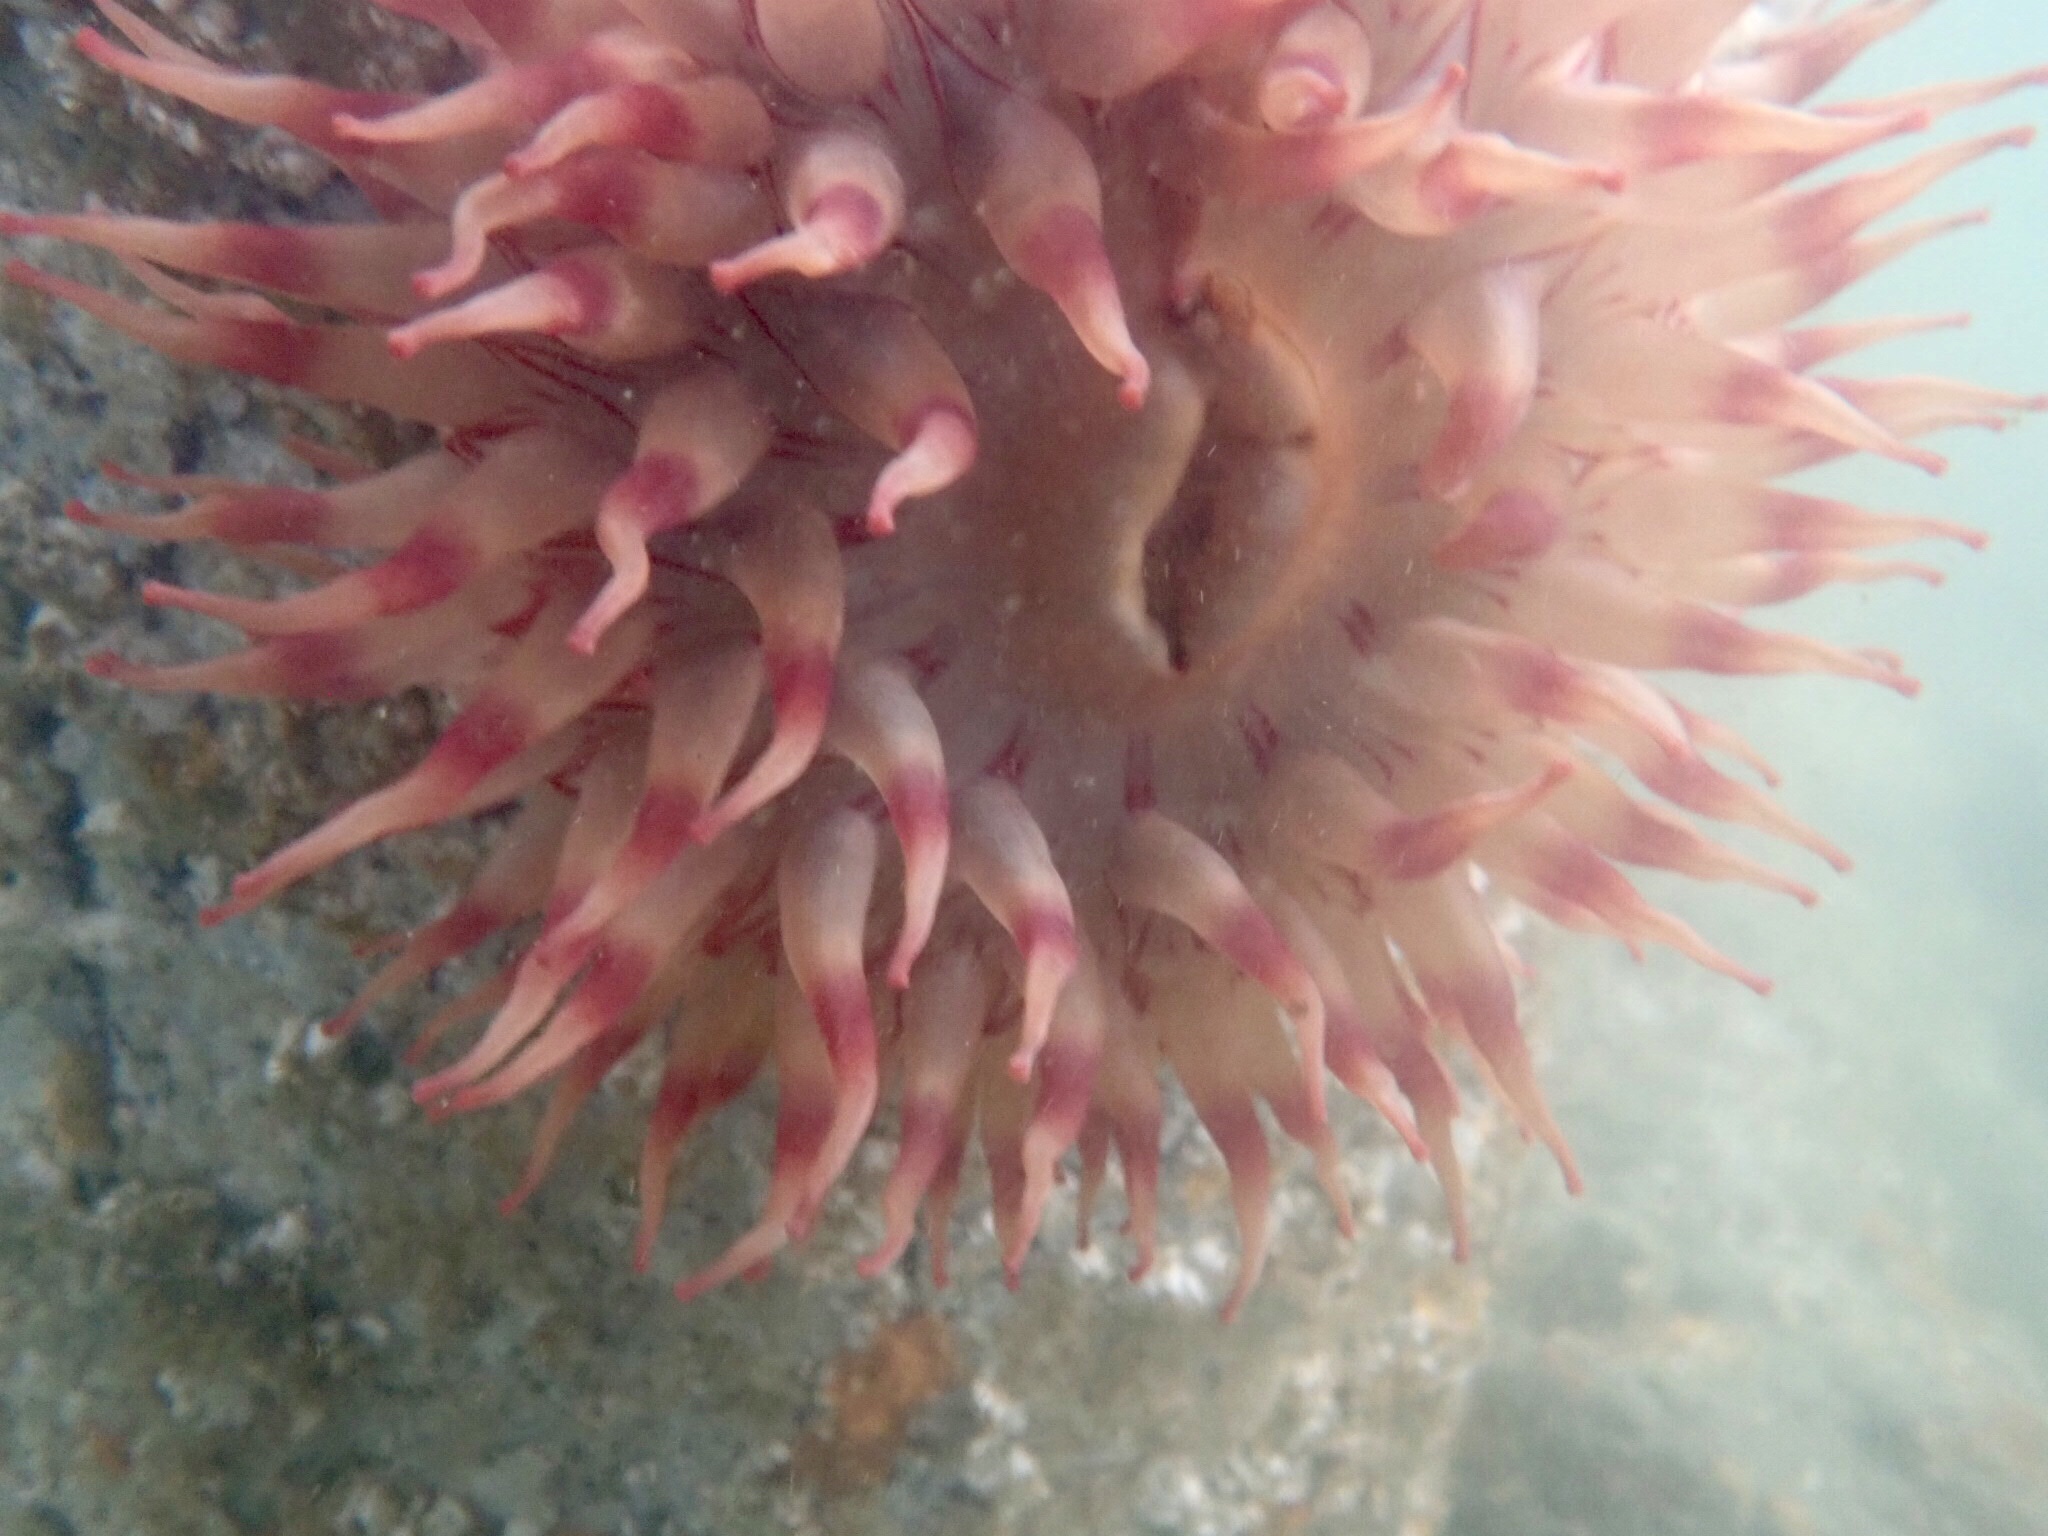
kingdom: Animalia
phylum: Cnidaria
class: Anthozoa
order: Actiniaria
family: Actiniidae
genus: Urticina
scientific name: Urticina grebelnyi
